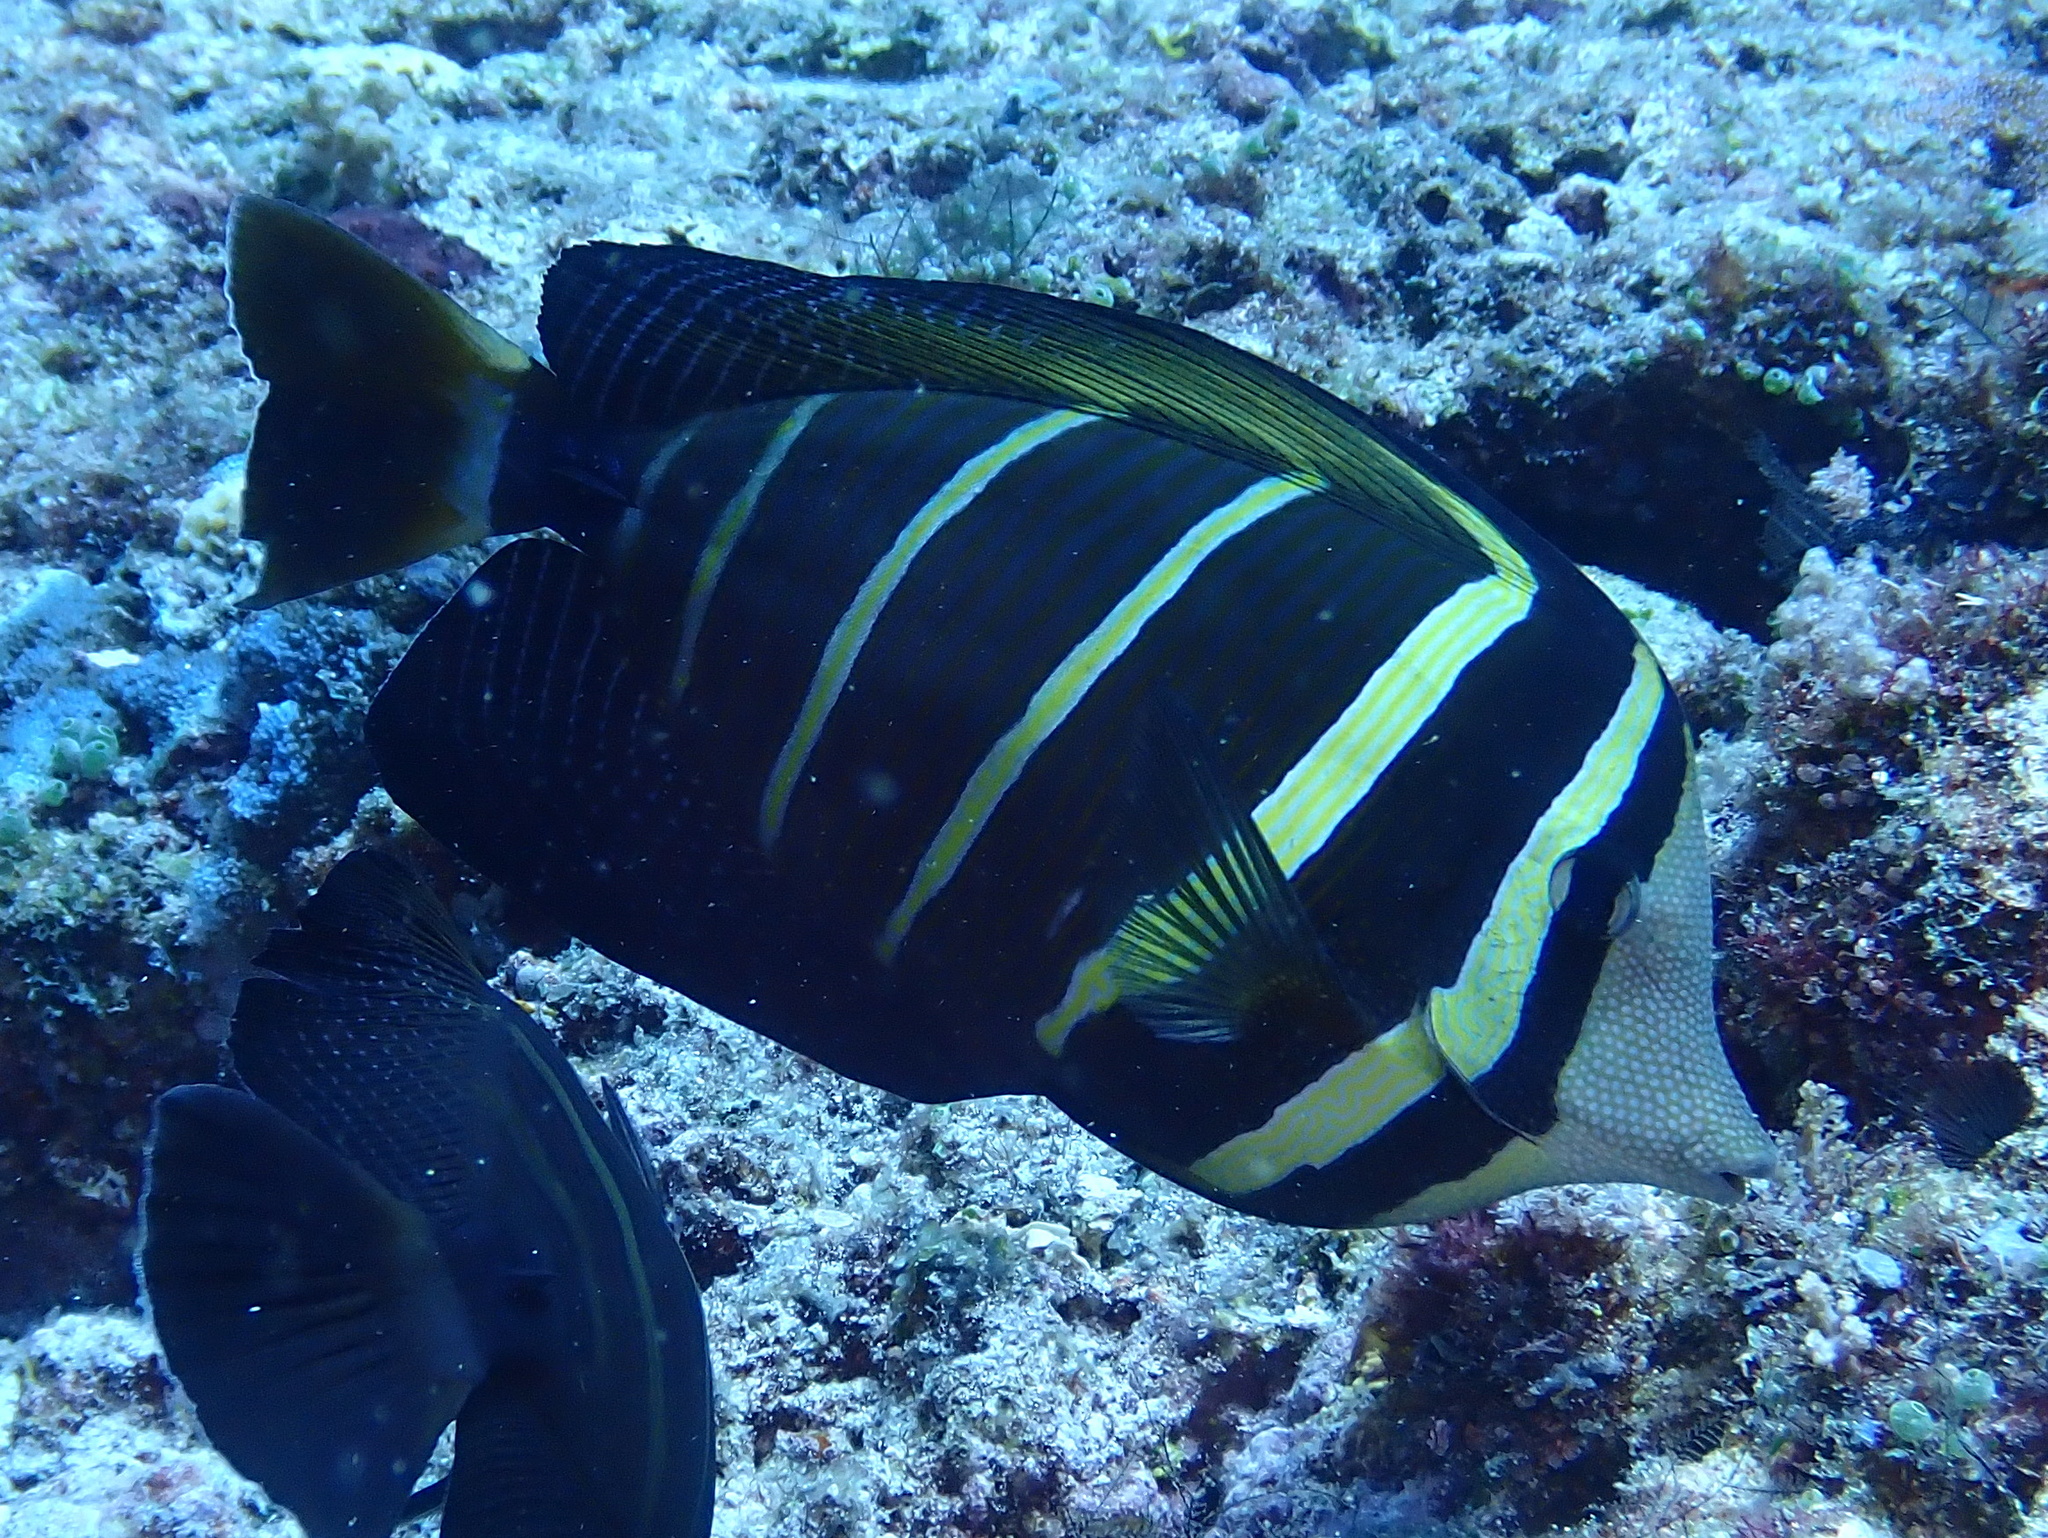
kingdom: Animalia
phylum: Chordata
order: Perciformes
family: Acanthuridae
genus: Zebrasoma
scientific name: Zebrasoma veliferum
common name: Sailfin surgeonfish
